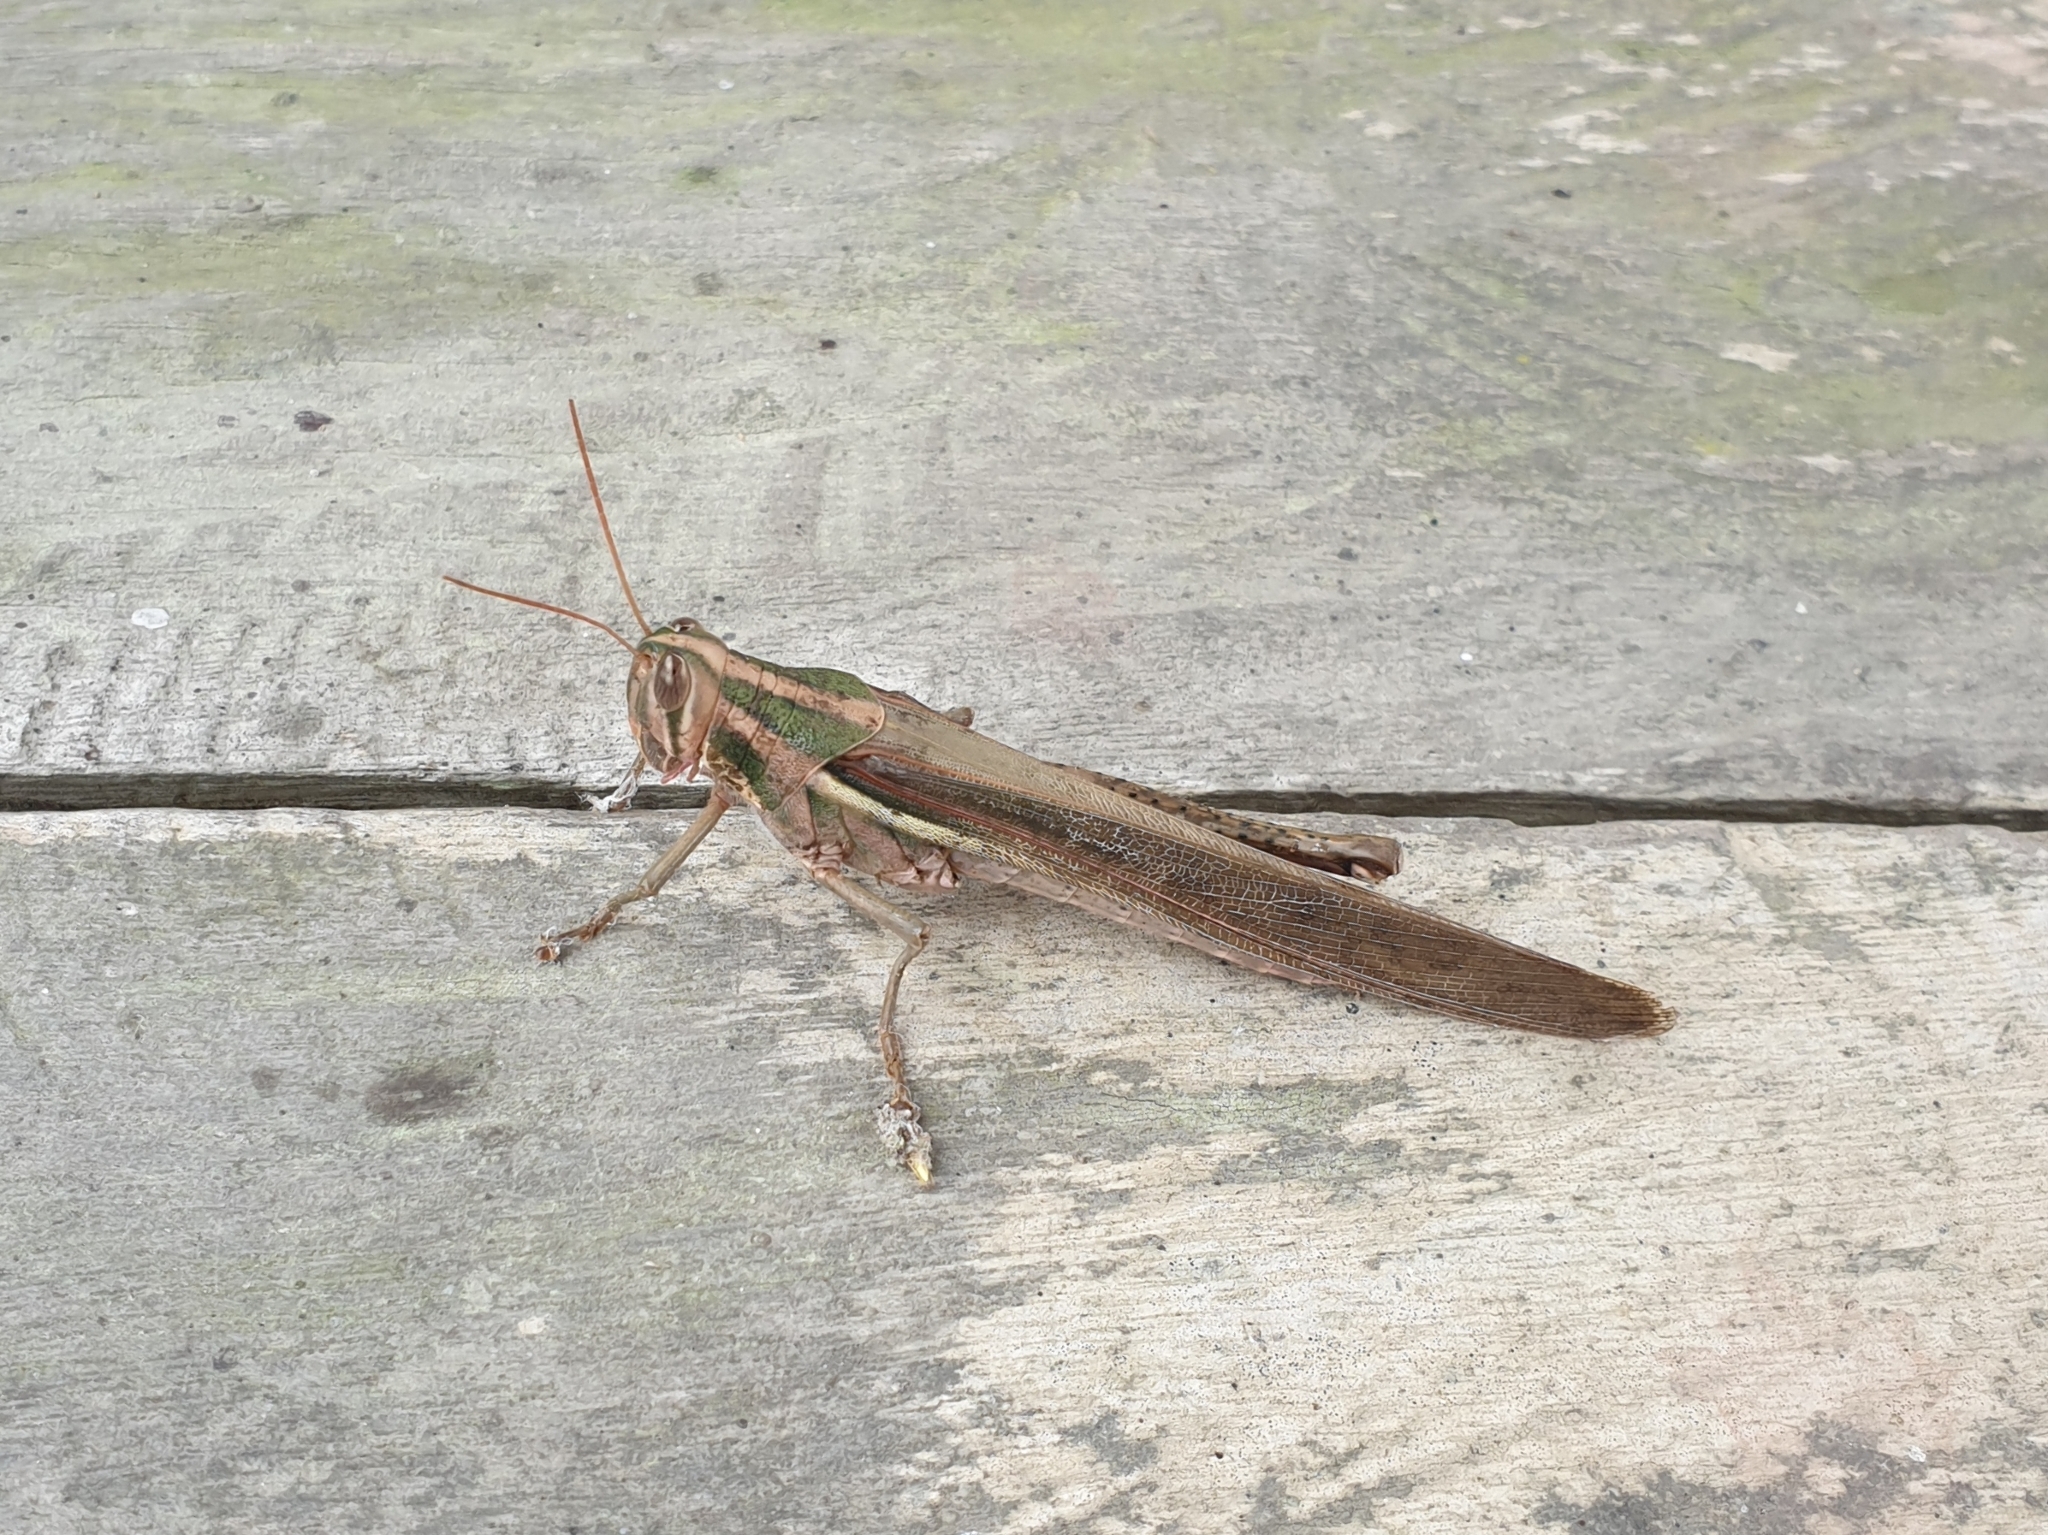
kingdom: Animalia
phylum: Arthropoda
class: Insecta
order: Orthoptera
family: Acrididae
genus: Schistocerca
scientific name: Schistocerca pallens
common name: Bird grasshopper
